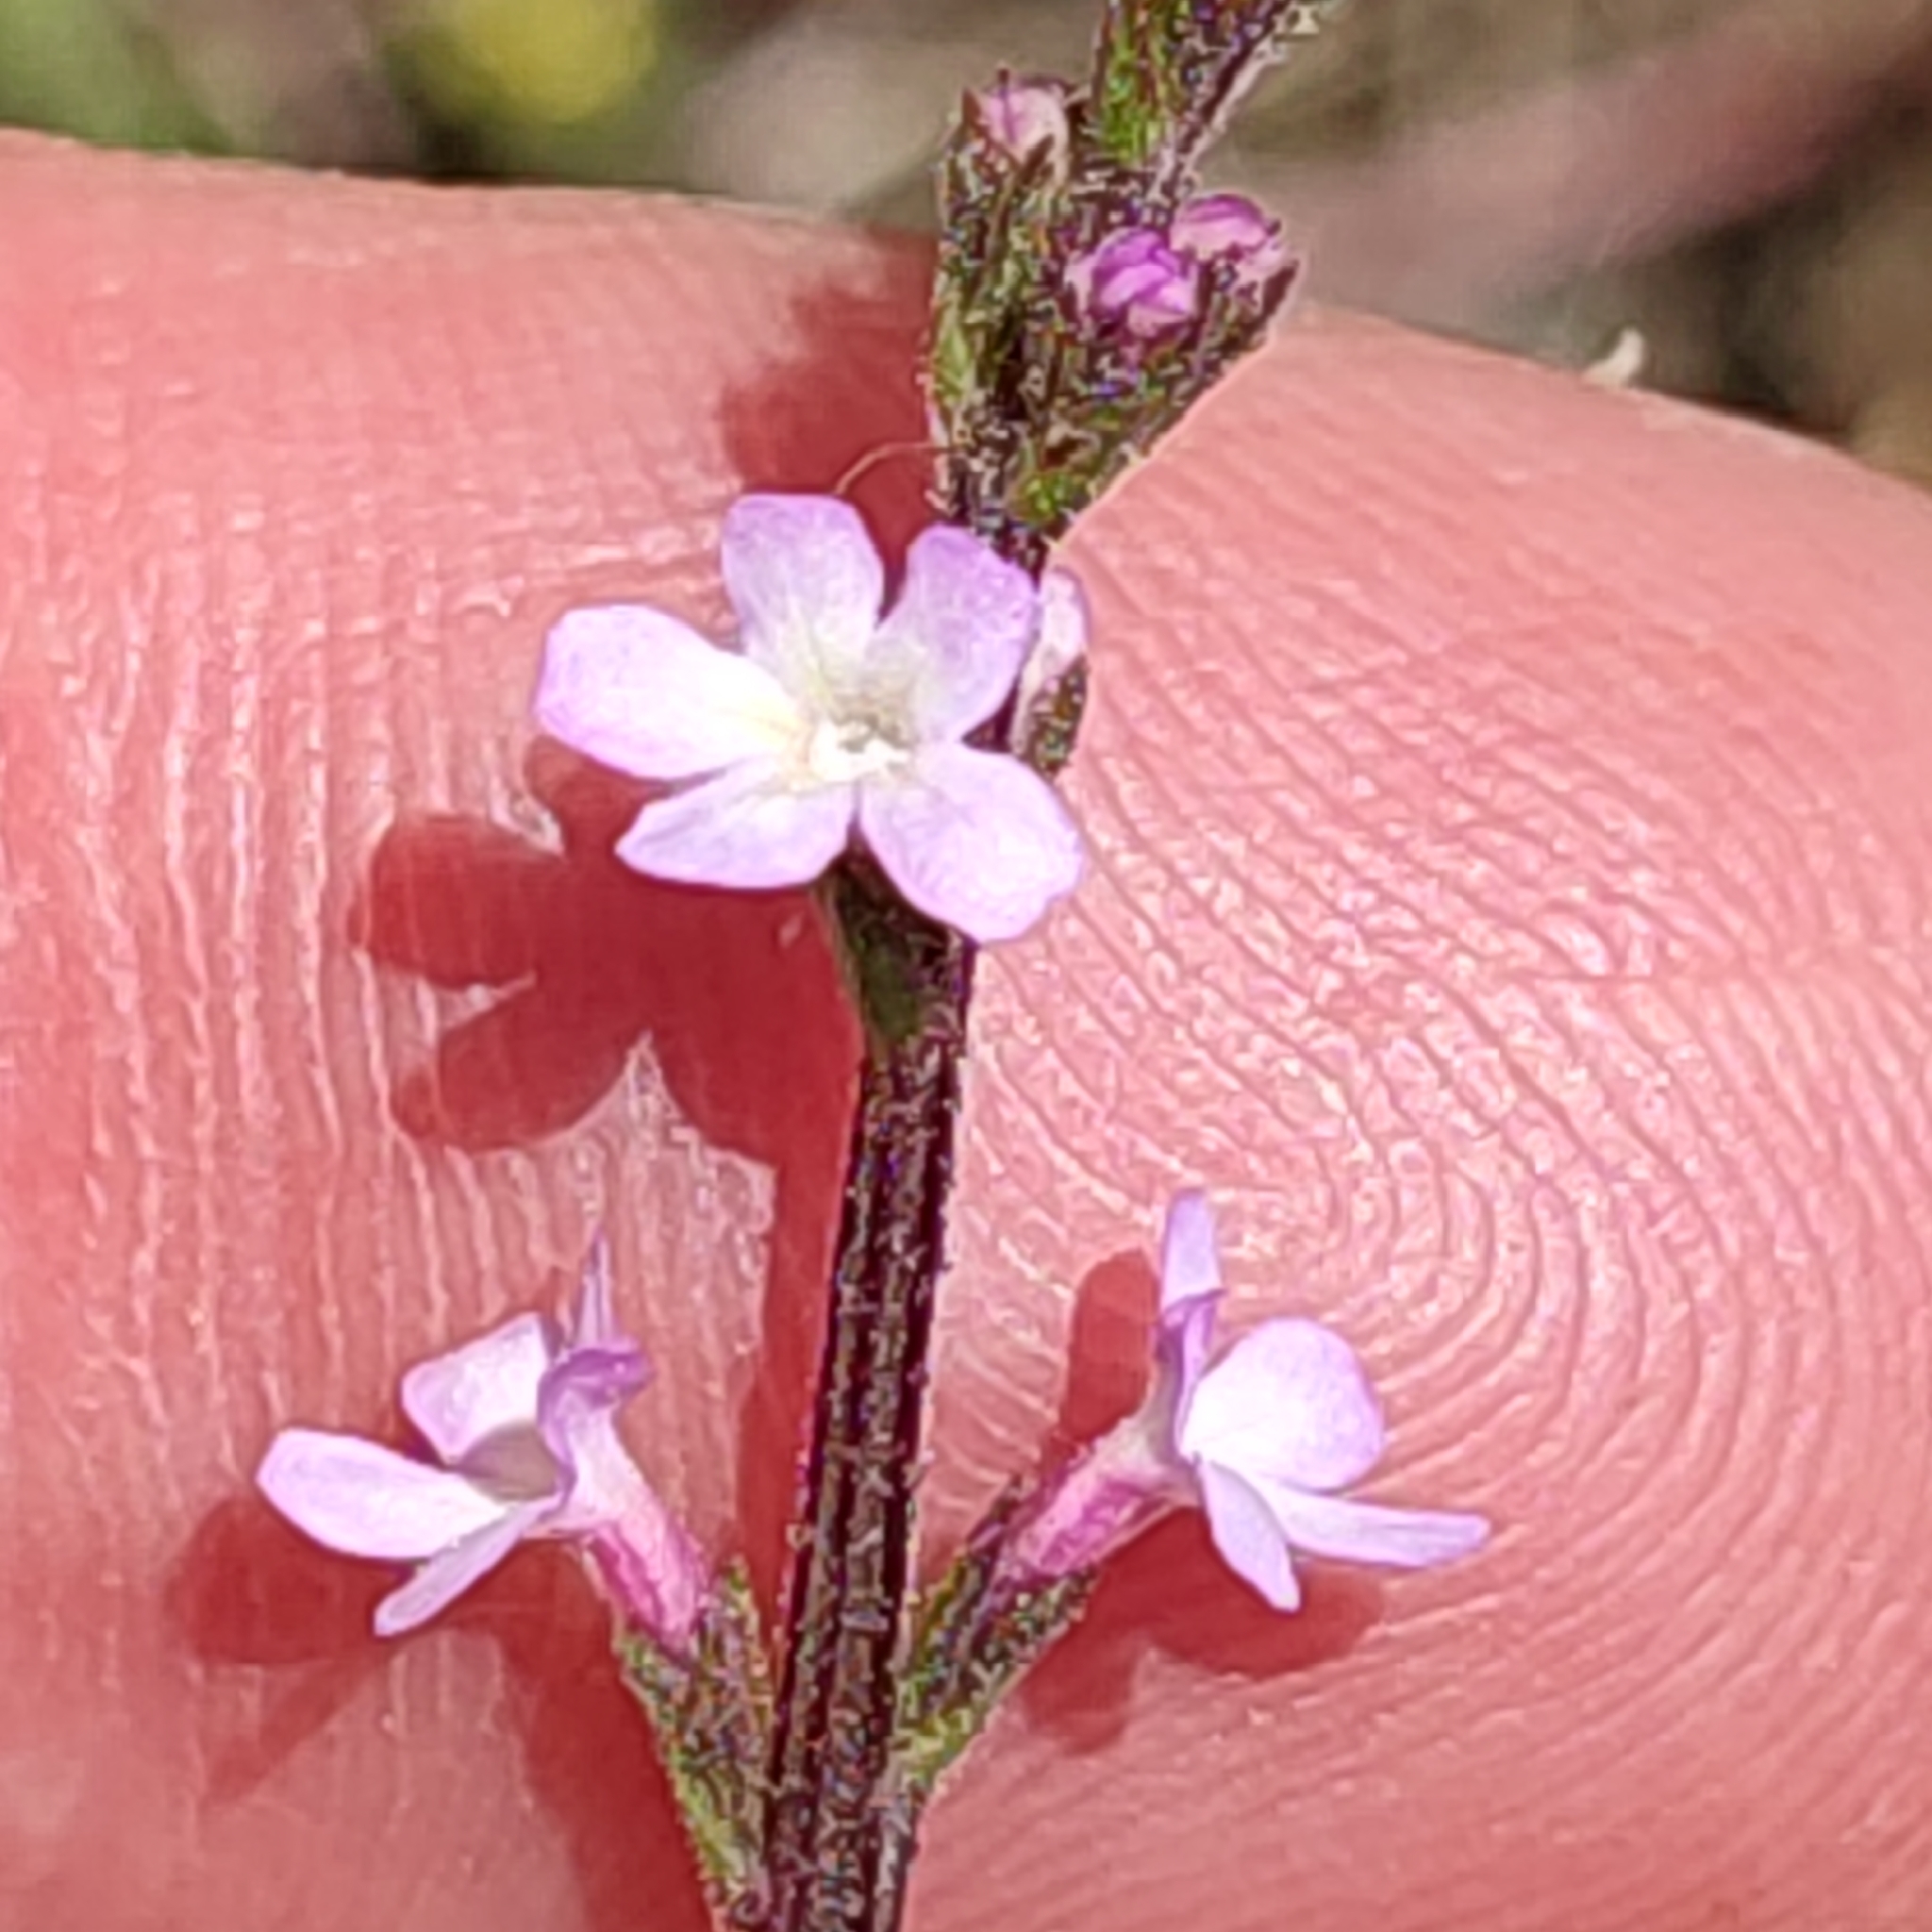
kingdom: Plantae
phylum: Tracheophyta
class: Magnoliopsida
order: Lamiales
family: Verbenaceae
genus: Verbena
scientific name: Verbena officinalis
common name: Vervain
